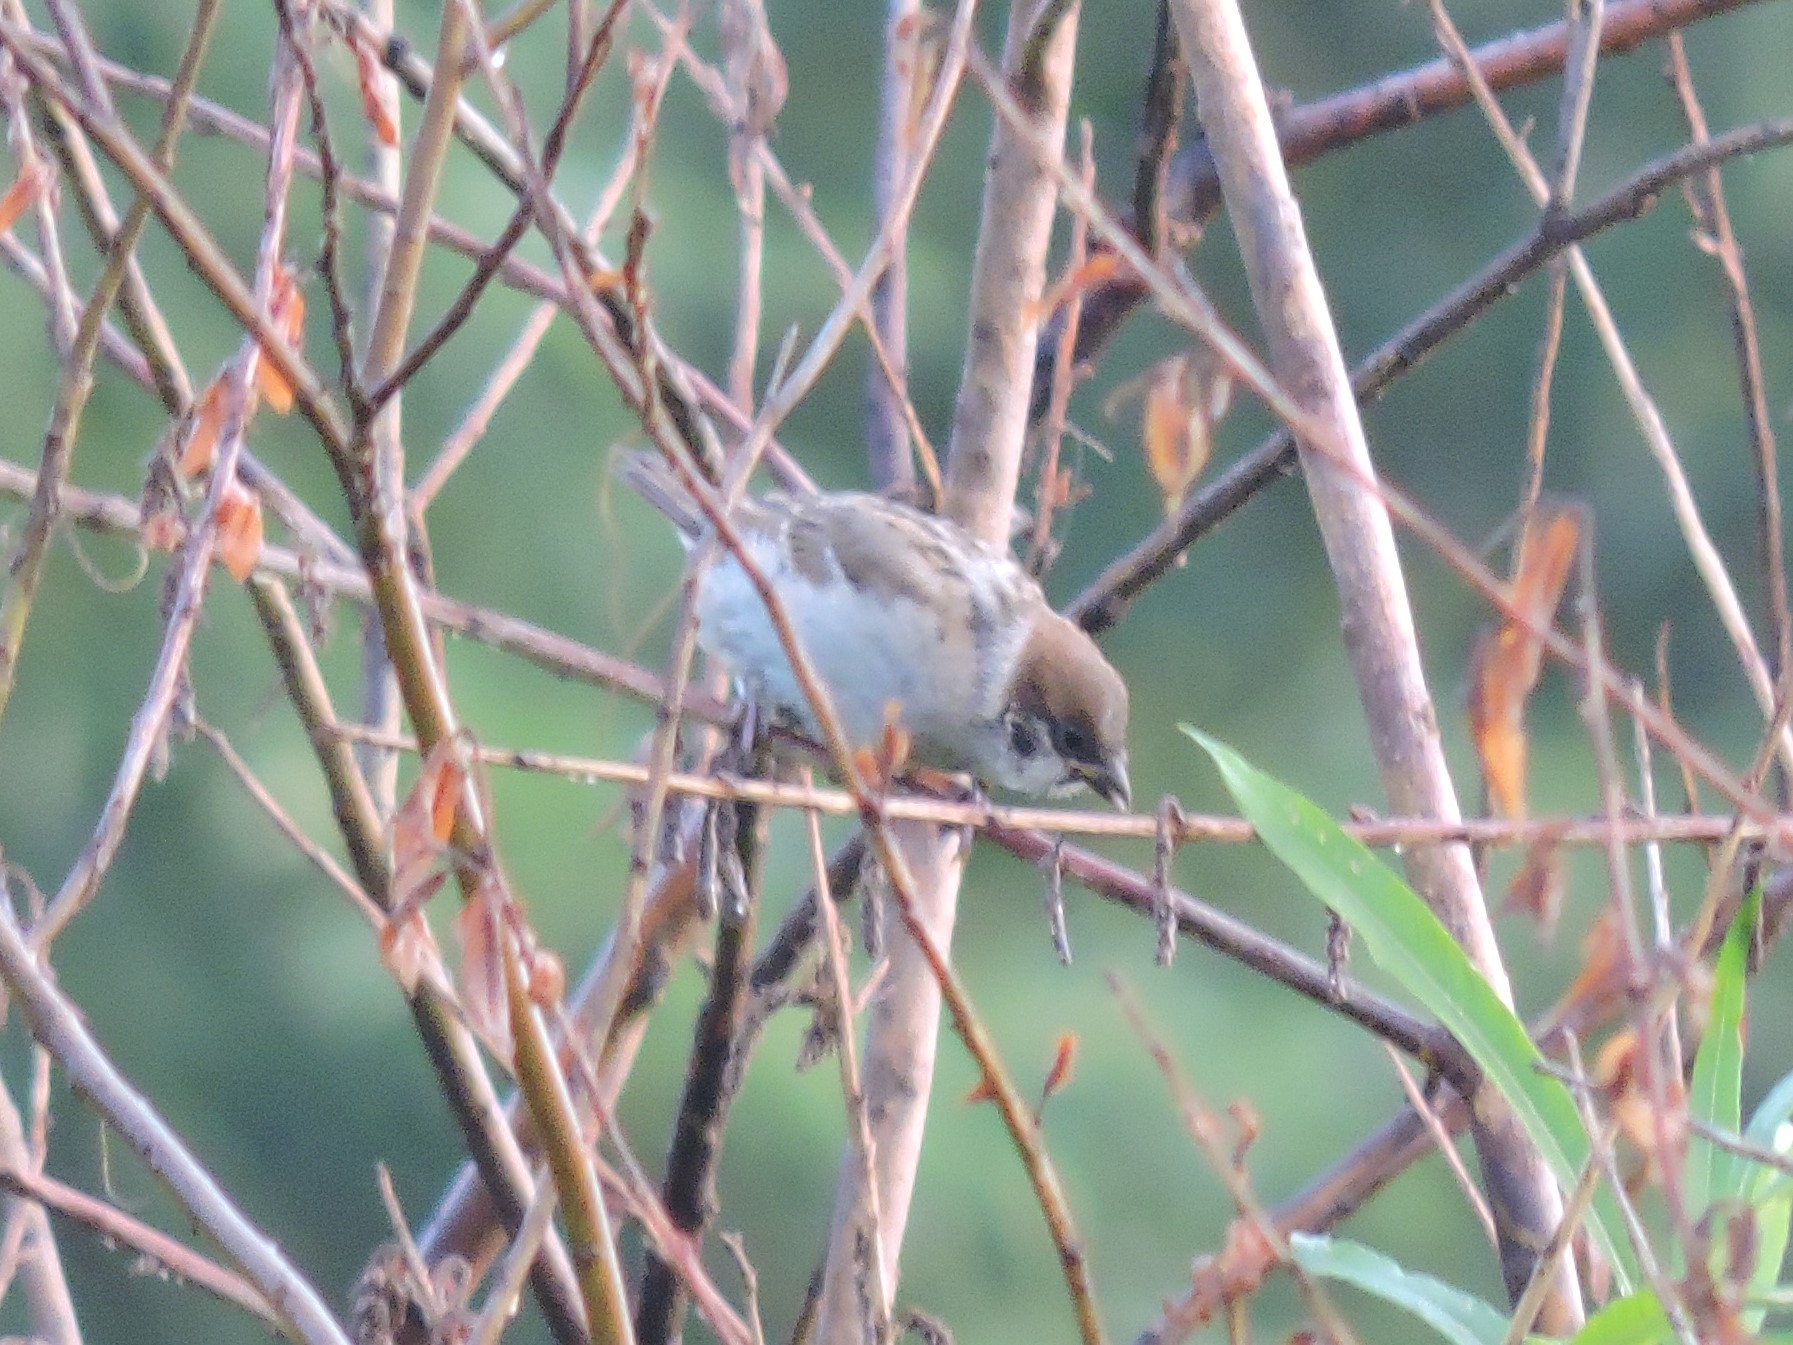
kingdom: Animalia
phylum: Chordata
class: Aves
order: Passeriformes
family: Passeridae
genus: Passer
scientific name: Passer montanus
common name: Eurasian tree sparrow
